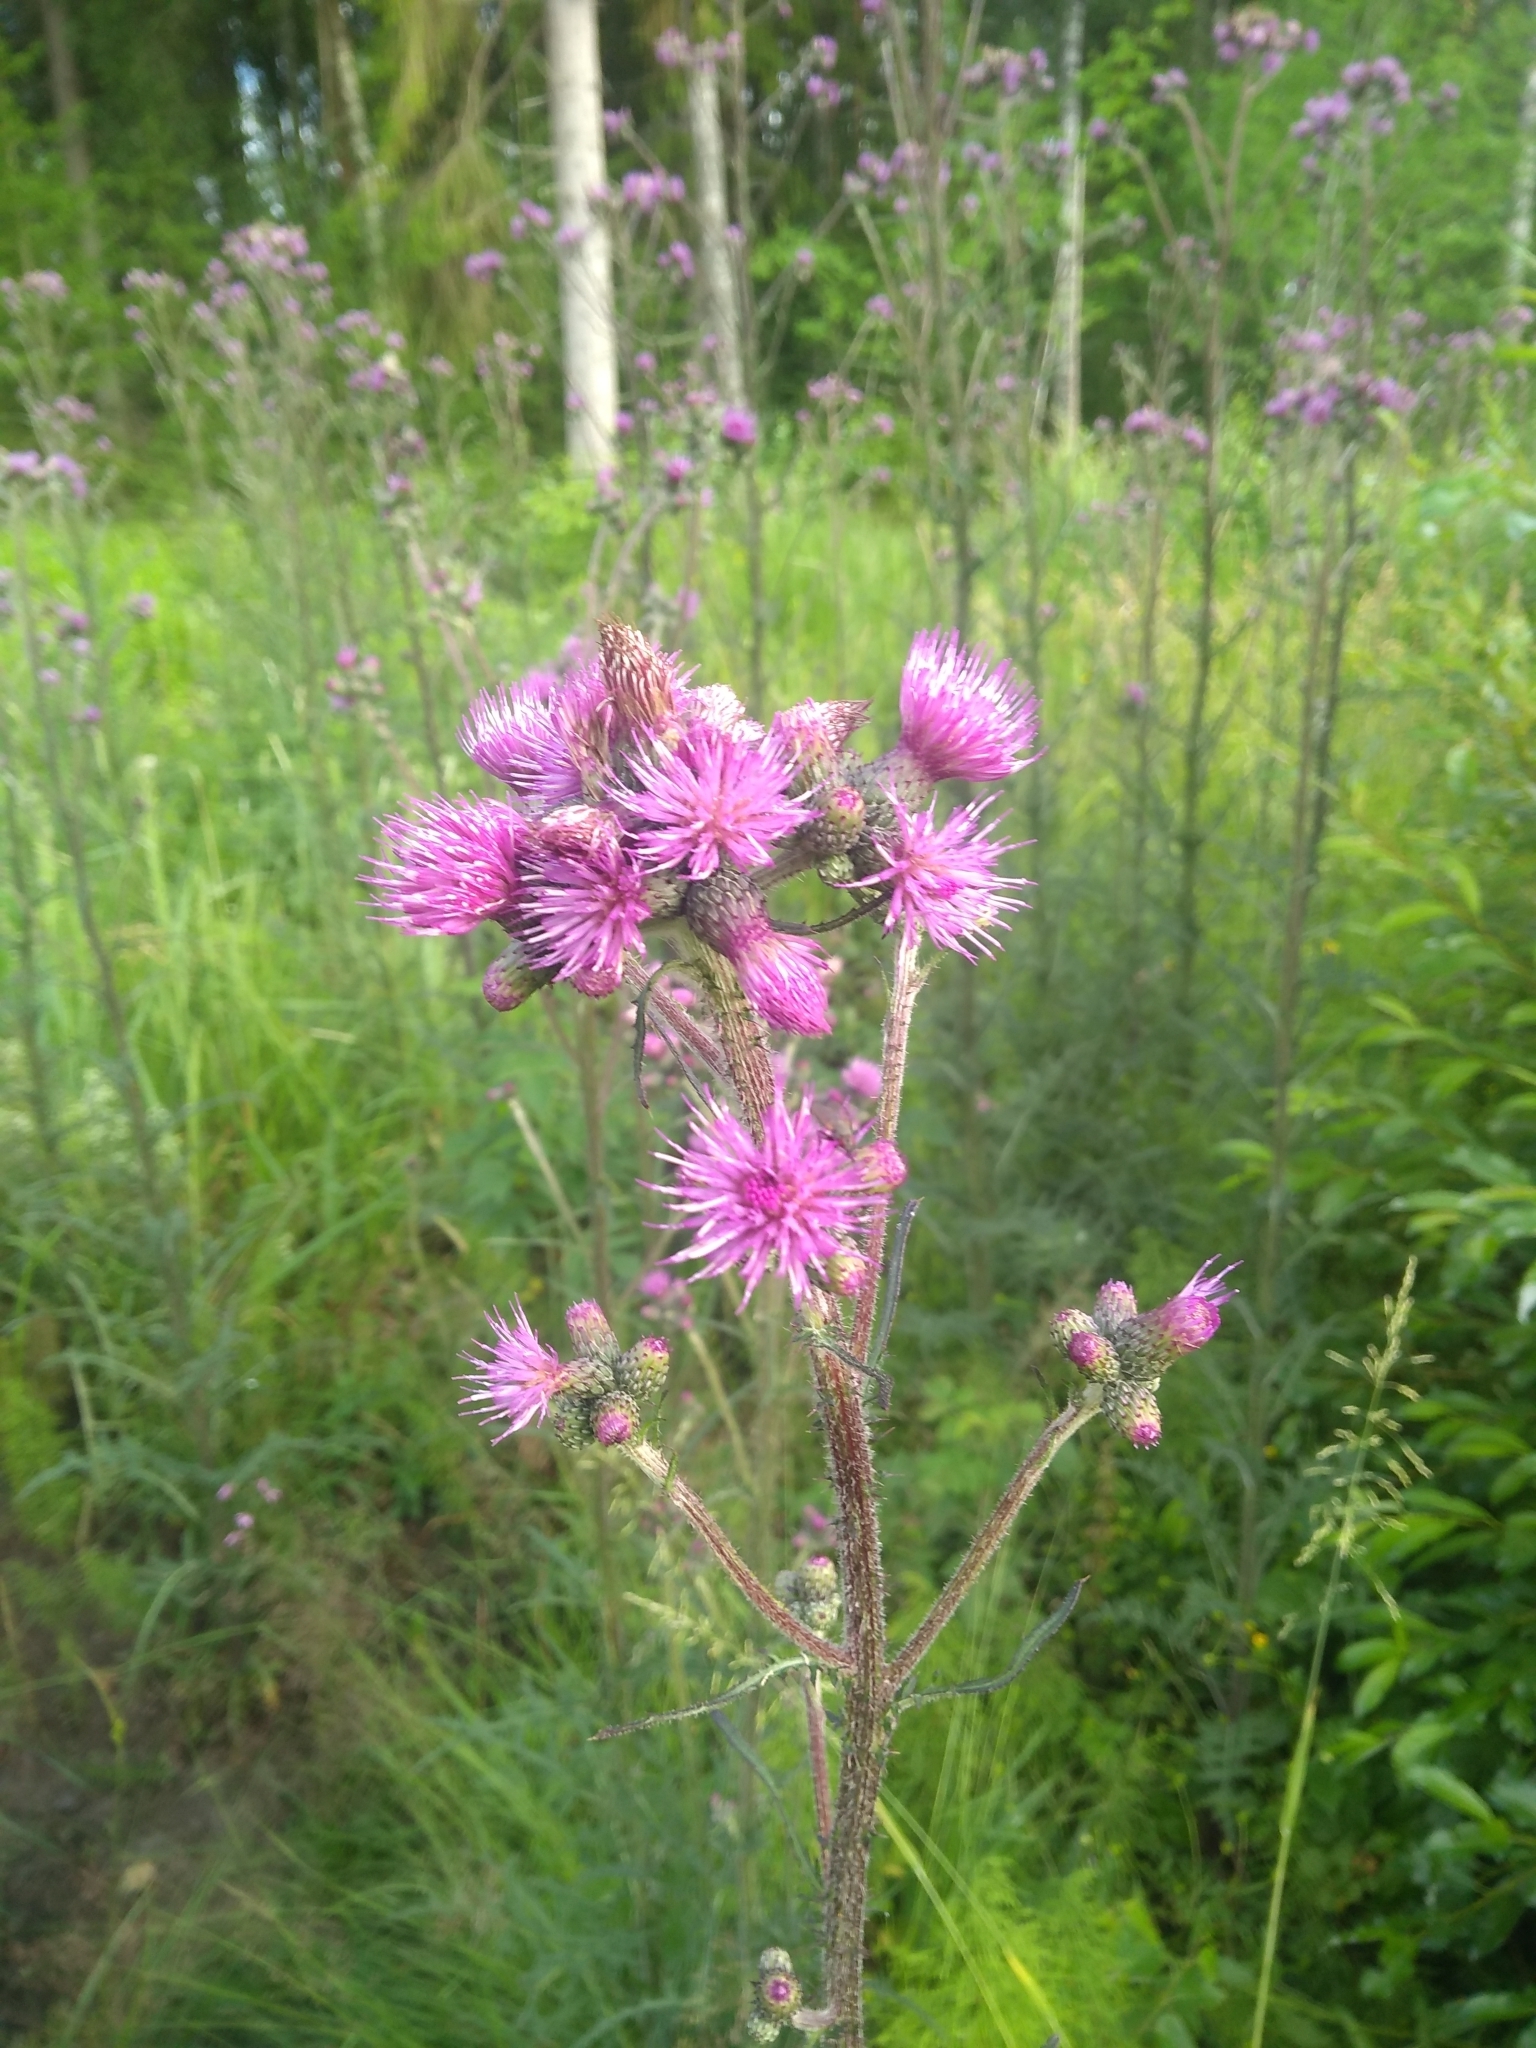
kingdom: Plantae
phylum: Tracheophyta
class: Magnoliopsida
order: Asterales
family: Asteraceae
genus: Cirsium
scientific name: Cirsium palustre
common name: Marsh thistle
